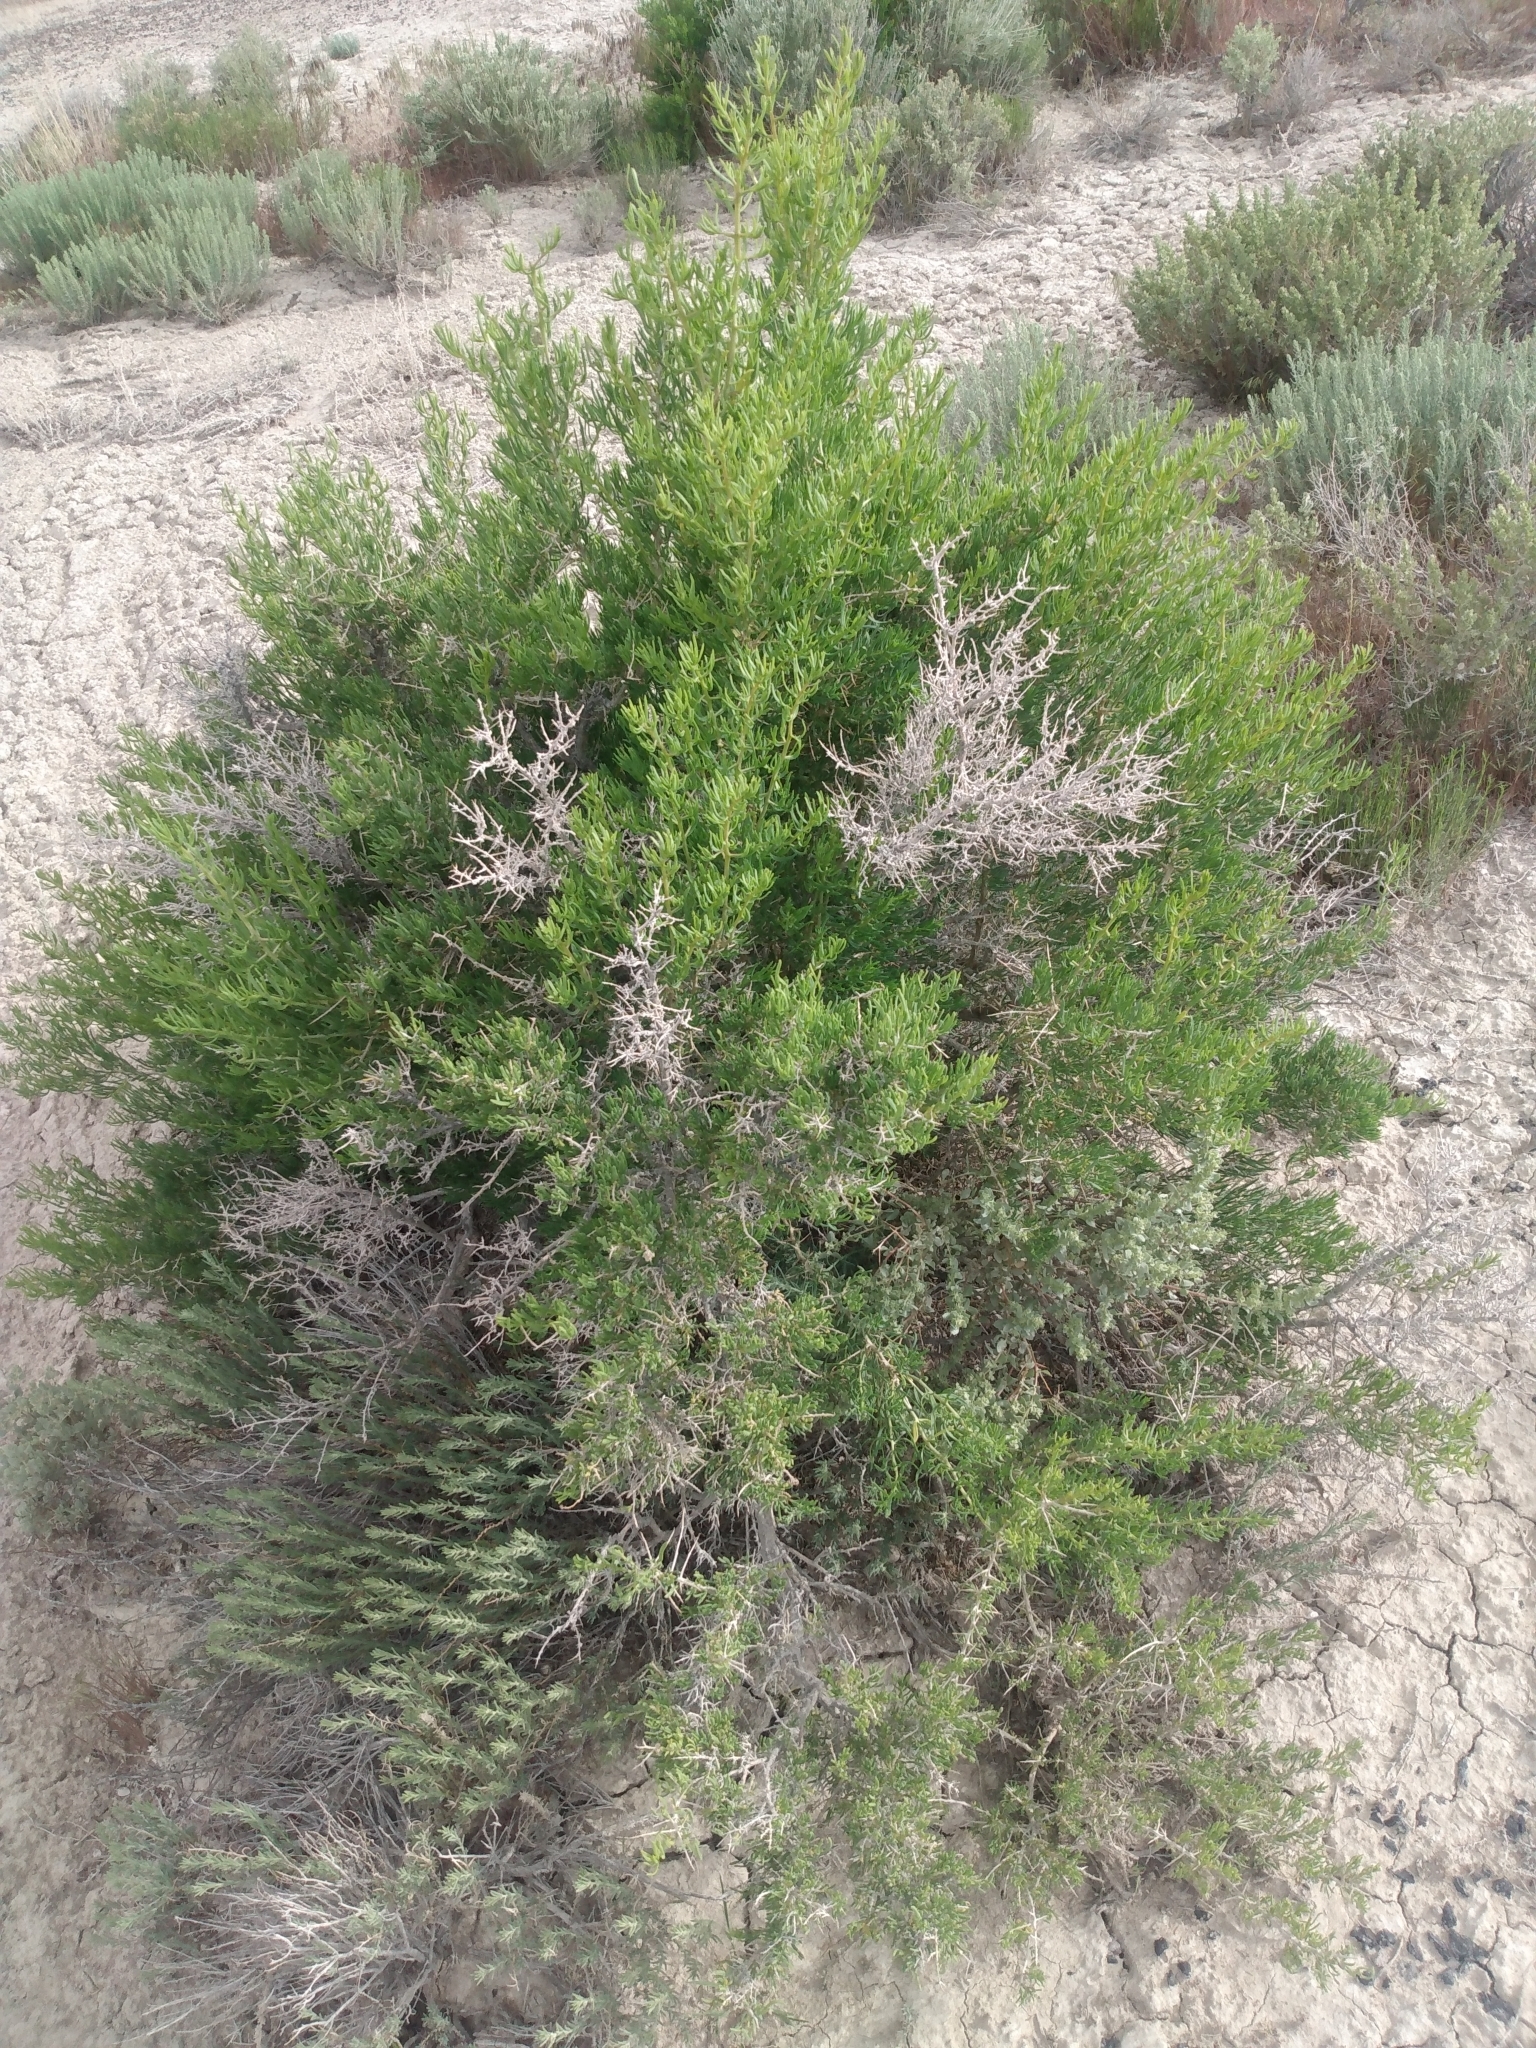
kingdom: Plantae
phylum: Tracheophyta
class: Magnoliopsida
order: Caryophyllales
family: Sarcobataceae
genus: Sarcobatus
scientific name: Sarcobatus vermiculatus
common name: Greasewood
